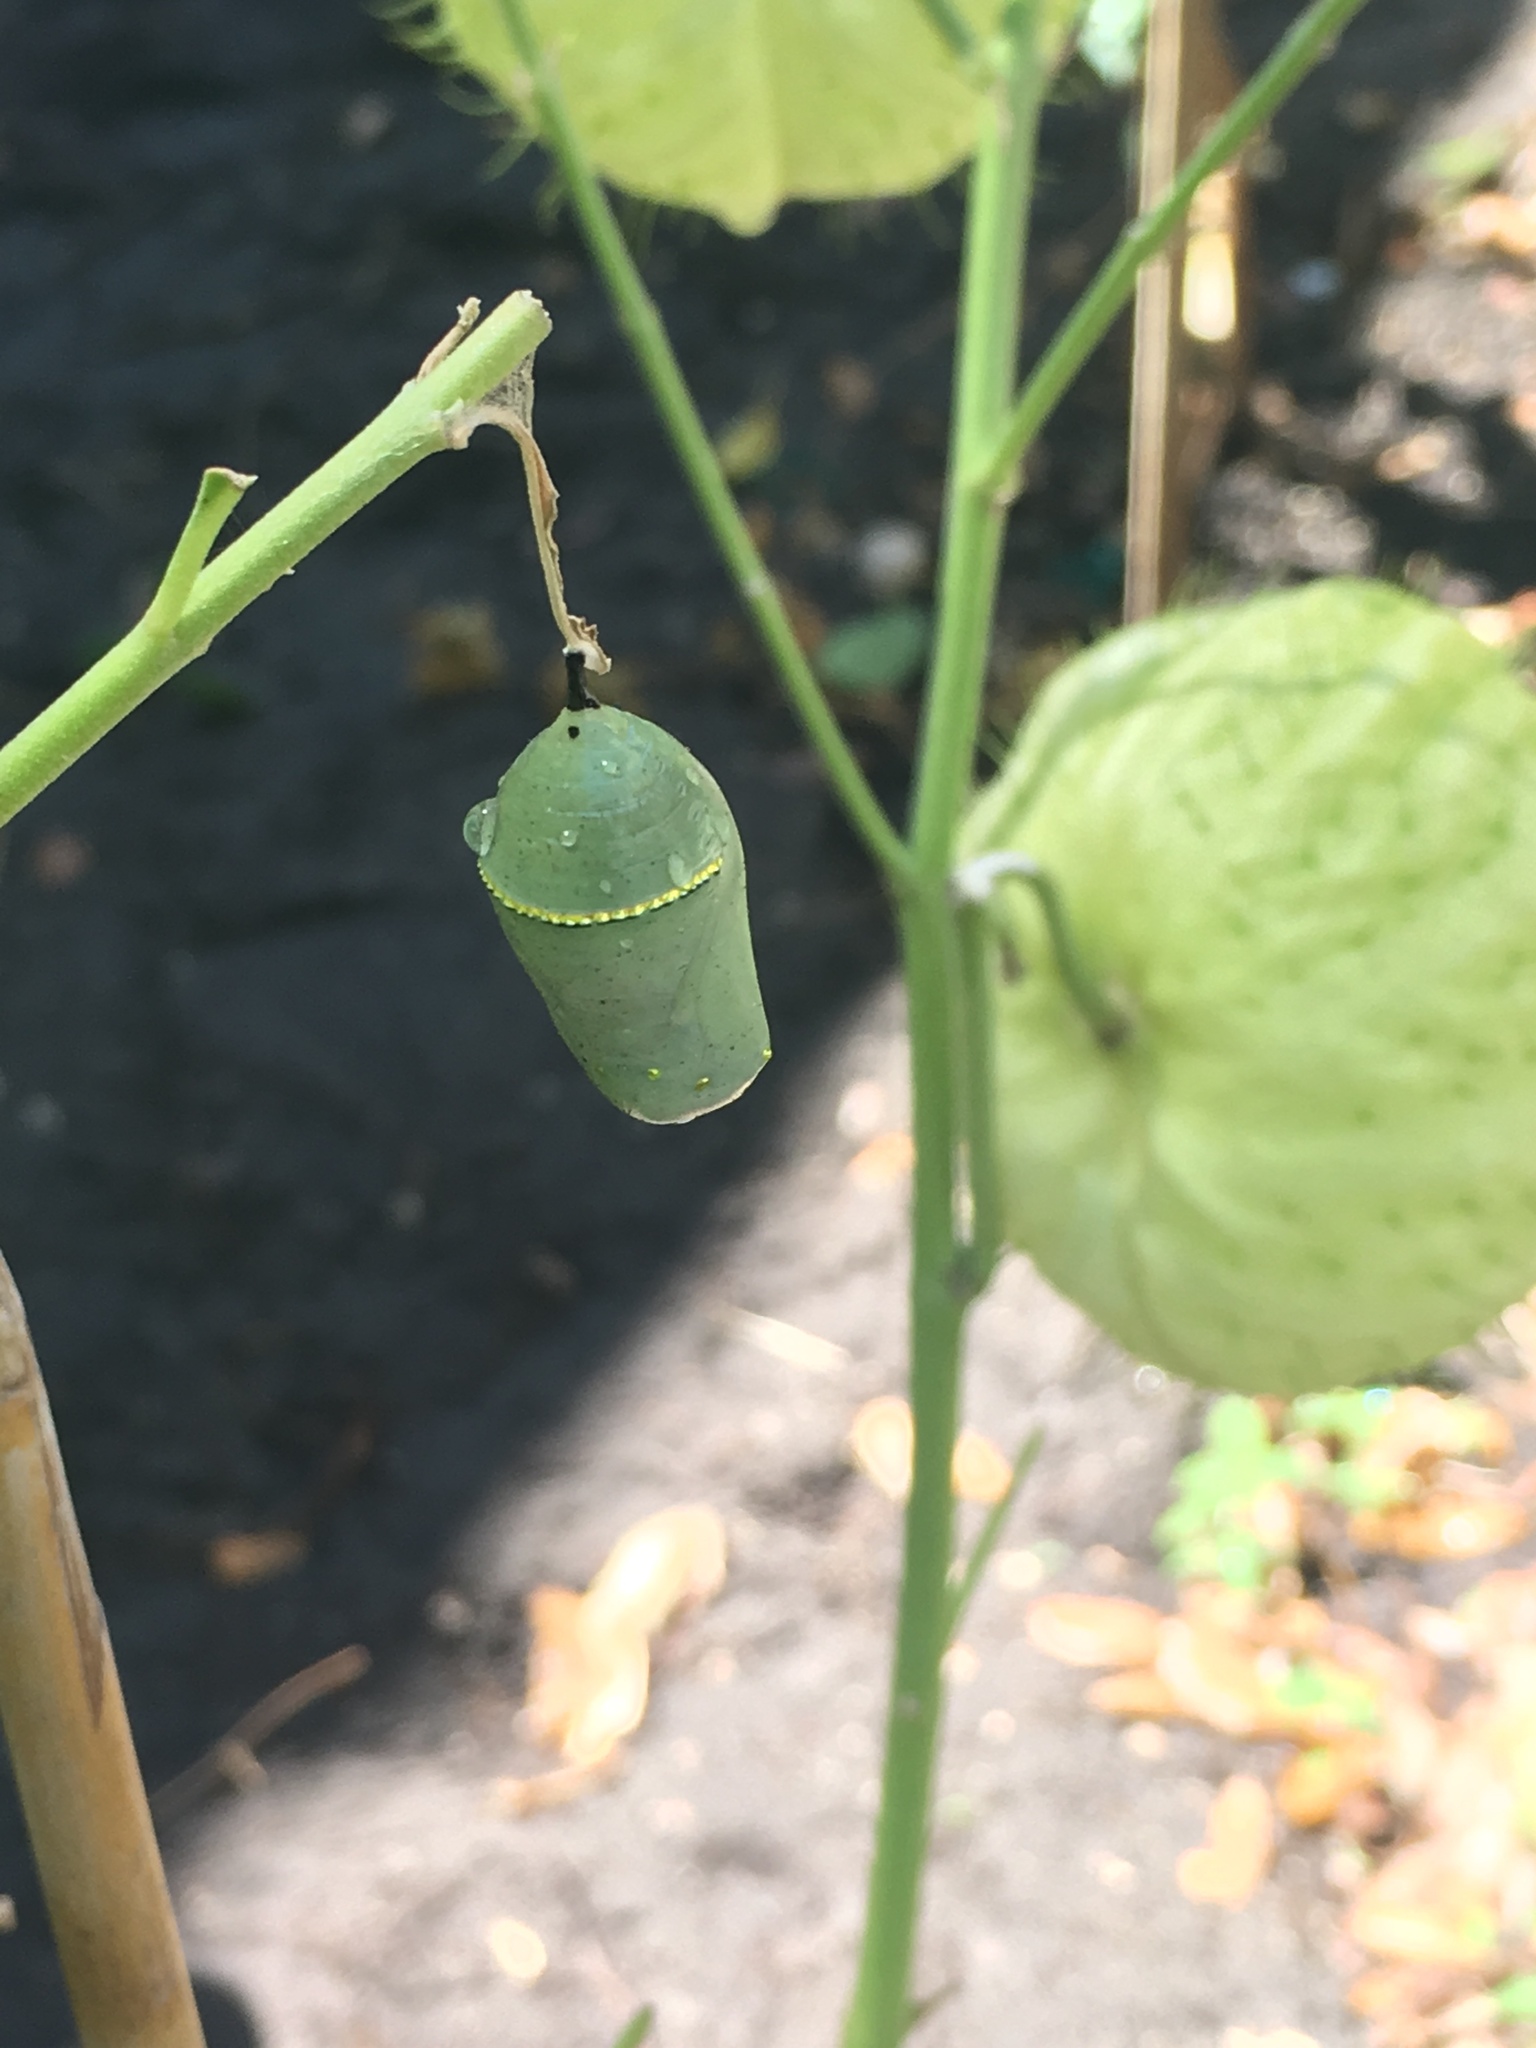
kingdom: Animalia
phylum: Arthropoda
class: Insecta
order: Lepidoptera
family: Nymphalidae
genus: Danaus
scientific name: Danaus plexippus
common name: Monarch
